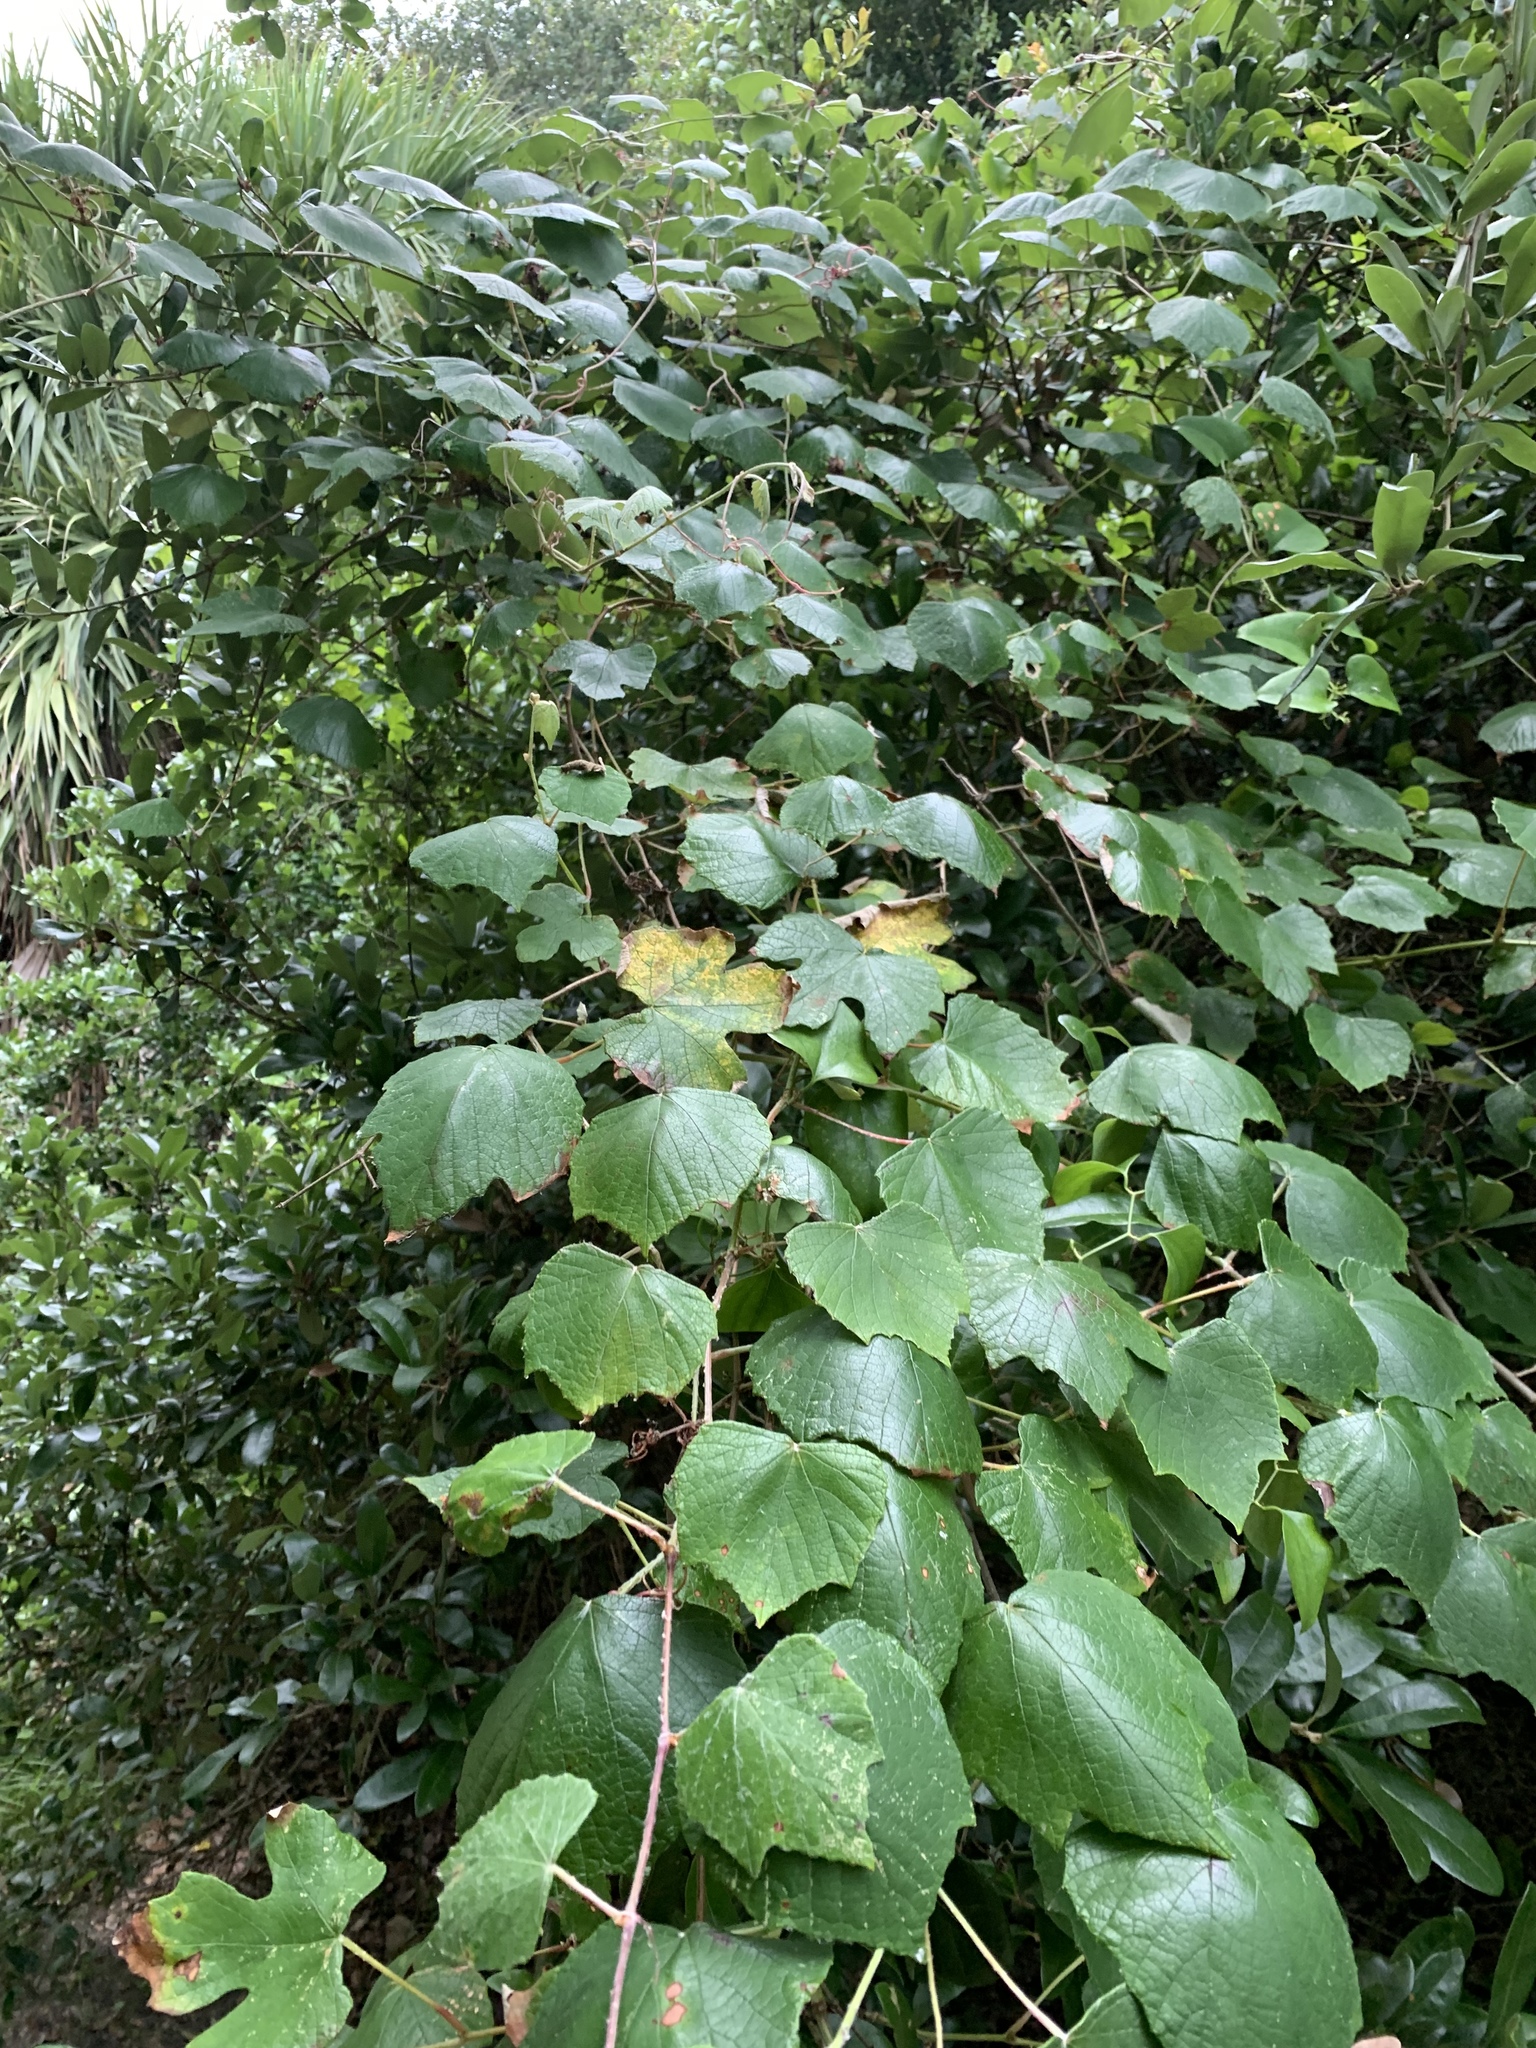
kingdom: Plantae
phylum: Tracheophyta
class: Magnoliopsida
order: Vitales
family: Vitaceae
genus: Vitis
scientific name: Vitis mustangensis
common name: Mustang grape
